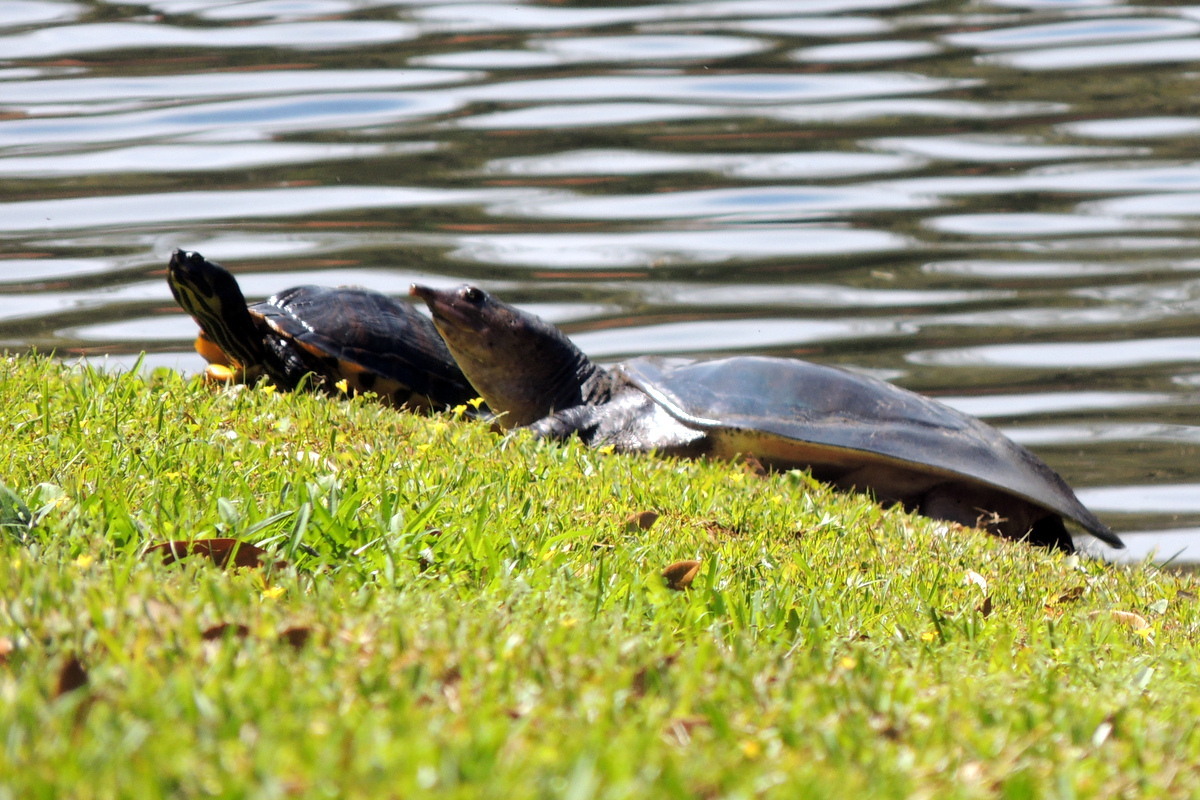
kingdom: Animalia
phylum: Chordata
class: Testudines
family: Trionychidae
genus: Apalone
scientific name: Apalone ferox
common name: Florida softshell turtle
